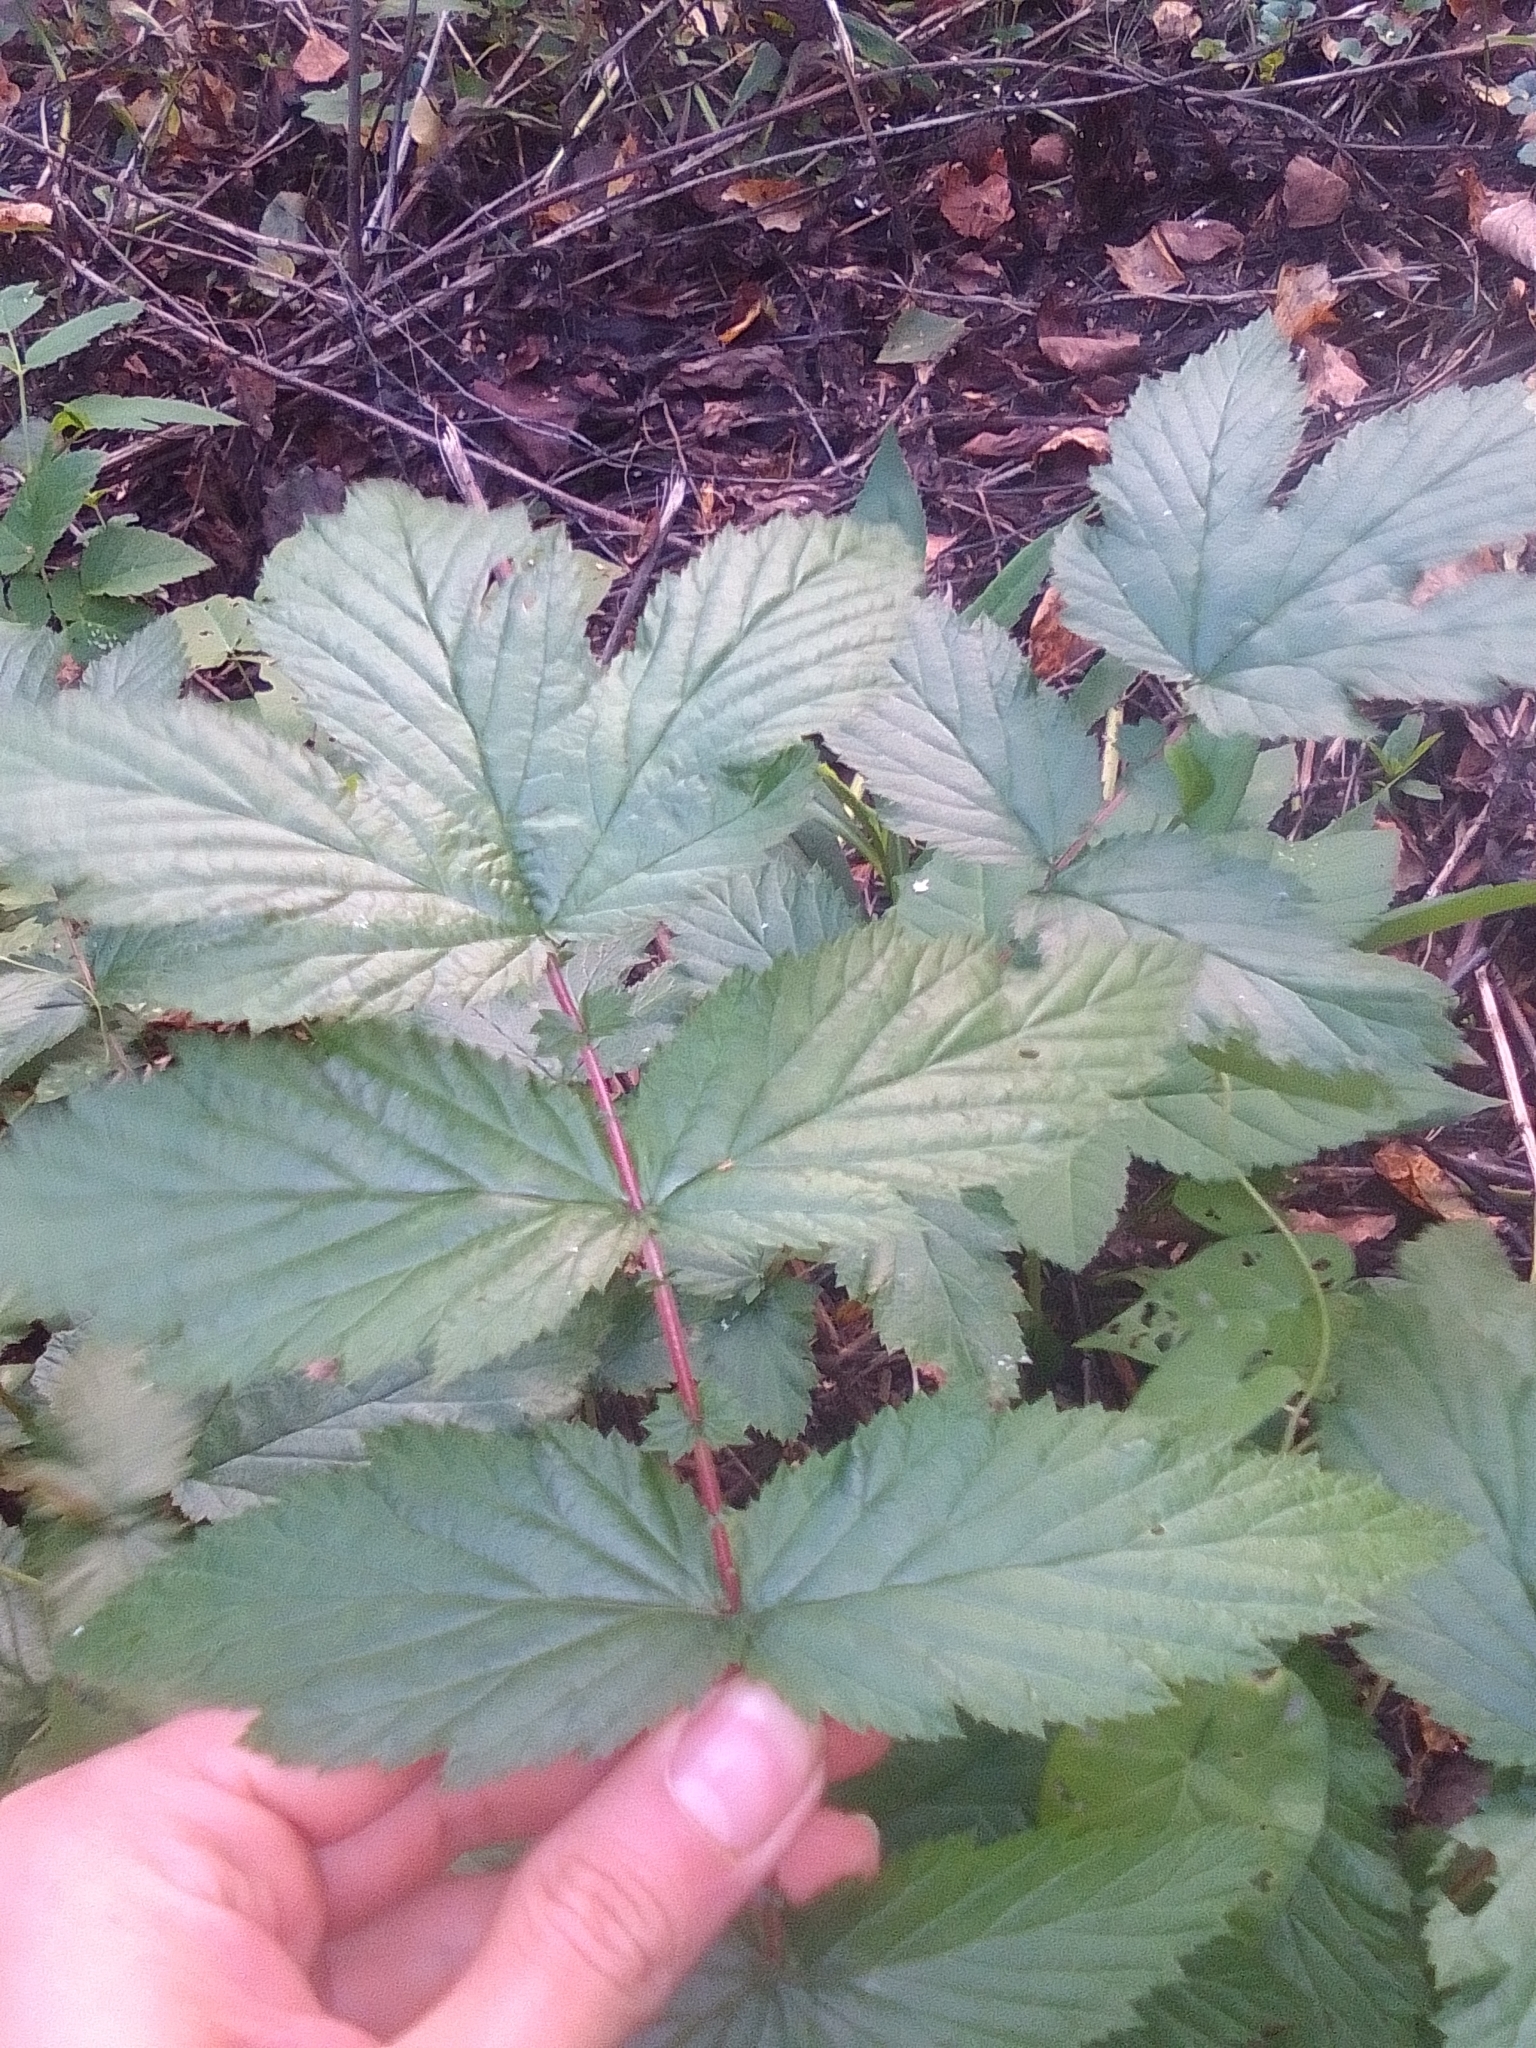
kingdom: Plantae
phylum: Tracheophyta
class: Magnoliopsida
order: Rosales
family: Rosaceae
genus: Filipendula
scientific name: Filipendula ulmaria
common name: Meadowsweet
